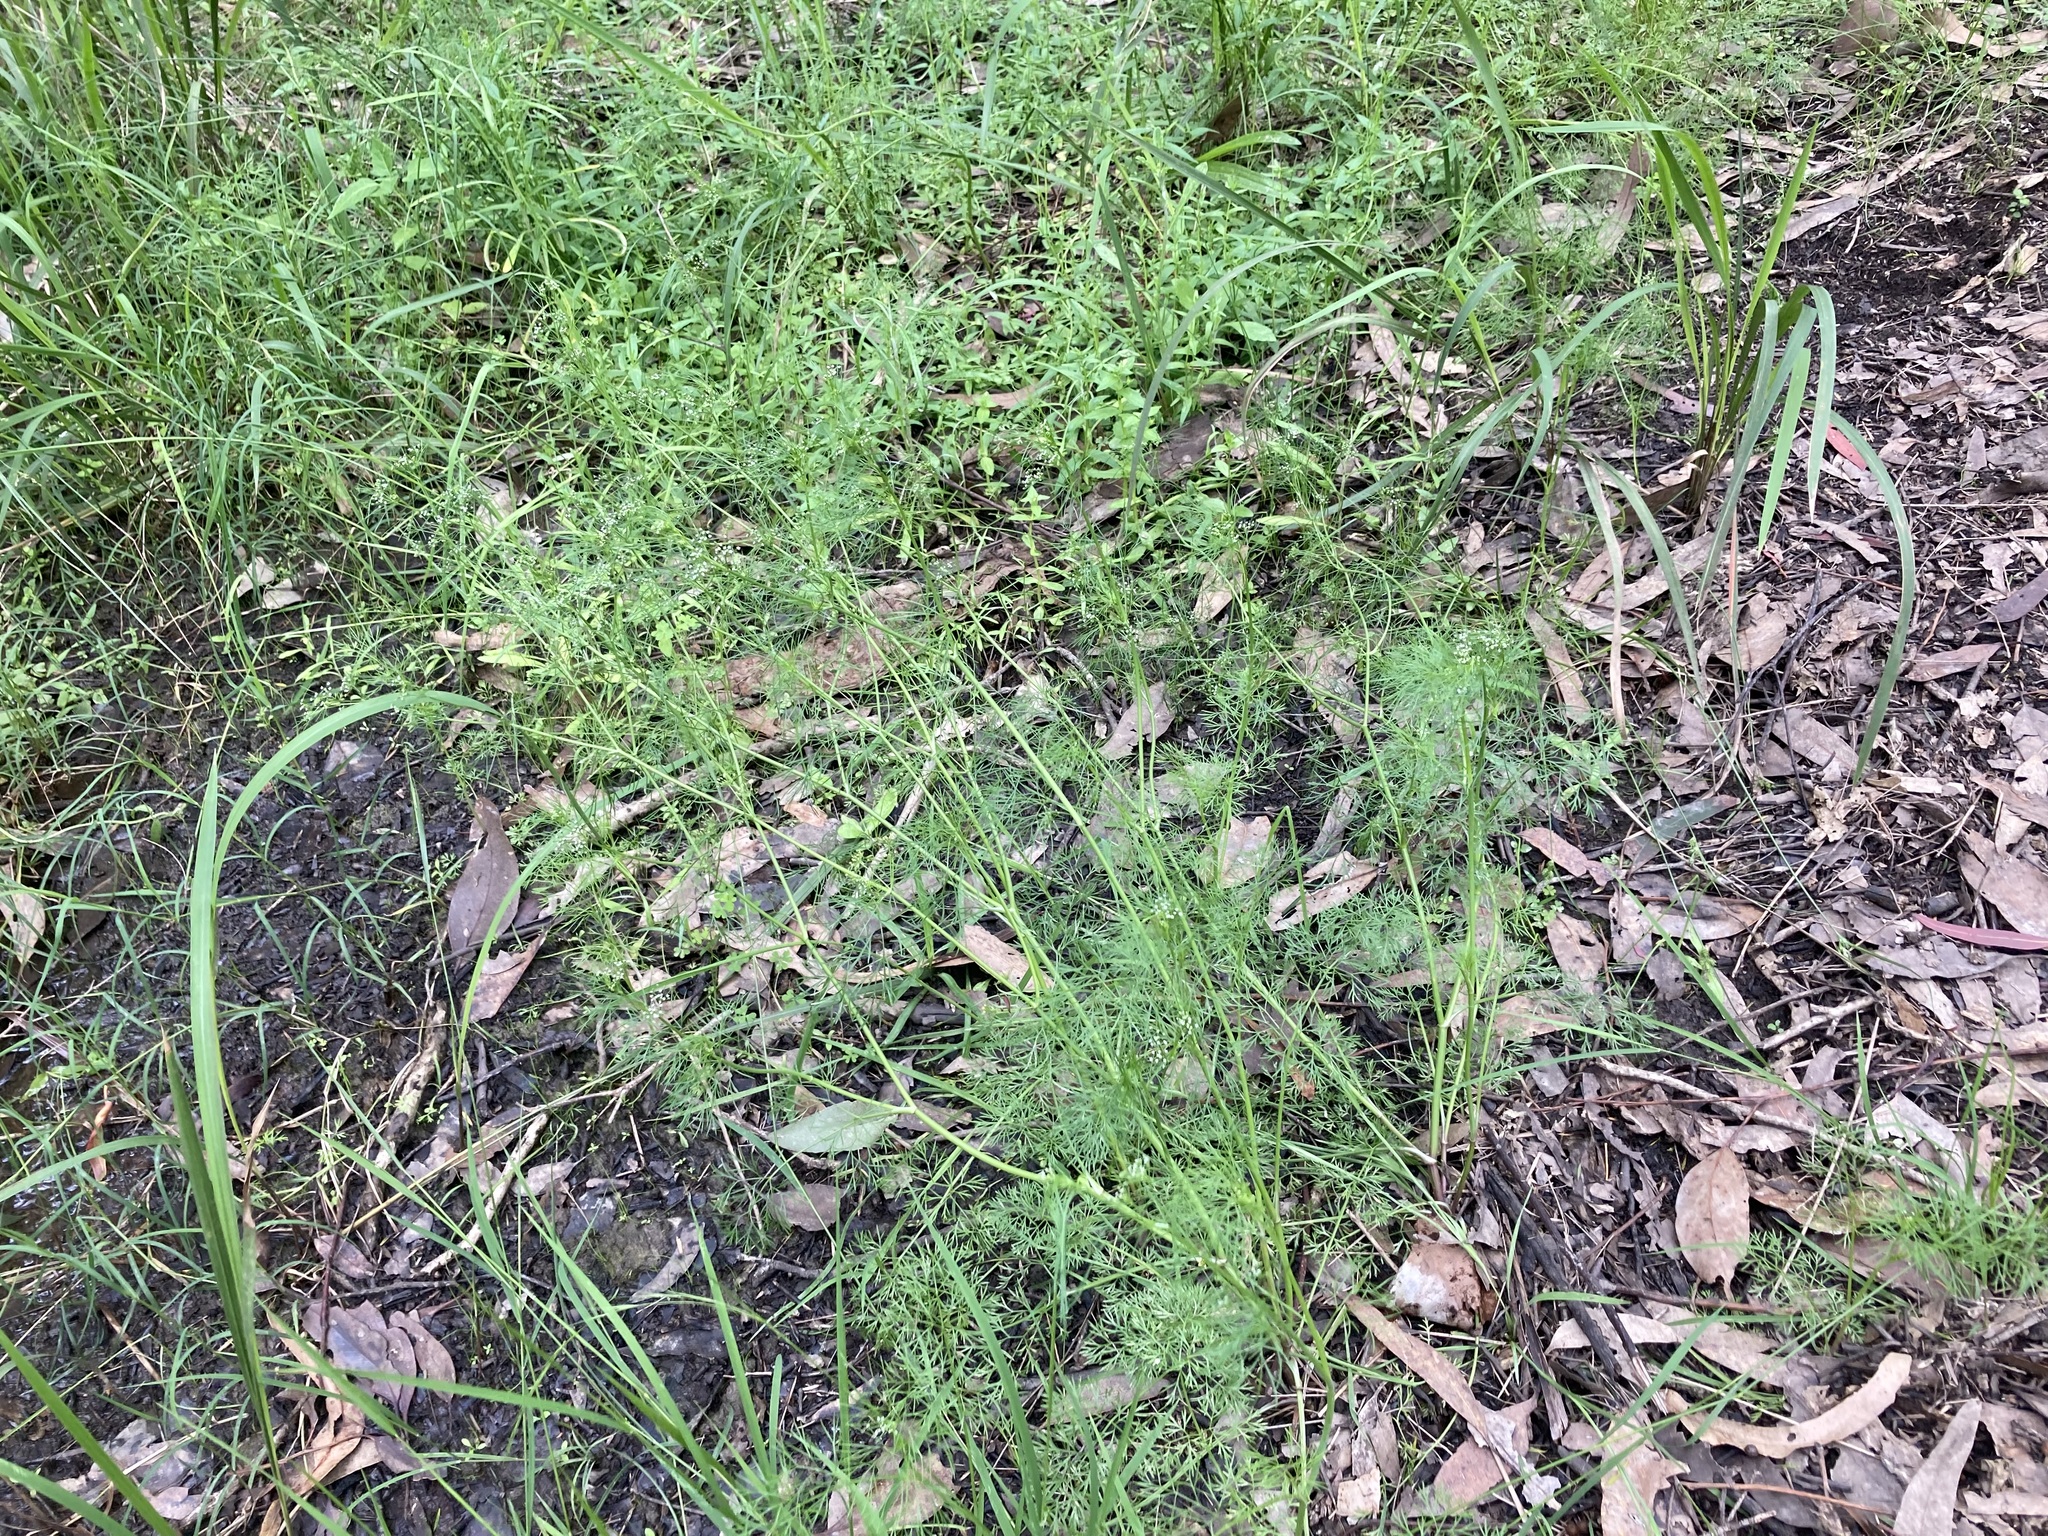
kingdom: Plantae
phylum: Tracheophyta
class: Magnoliopsida
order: Apiales
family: Apiaceae
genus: Cyclospermum
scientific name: Cyclospermum leptophyllum
